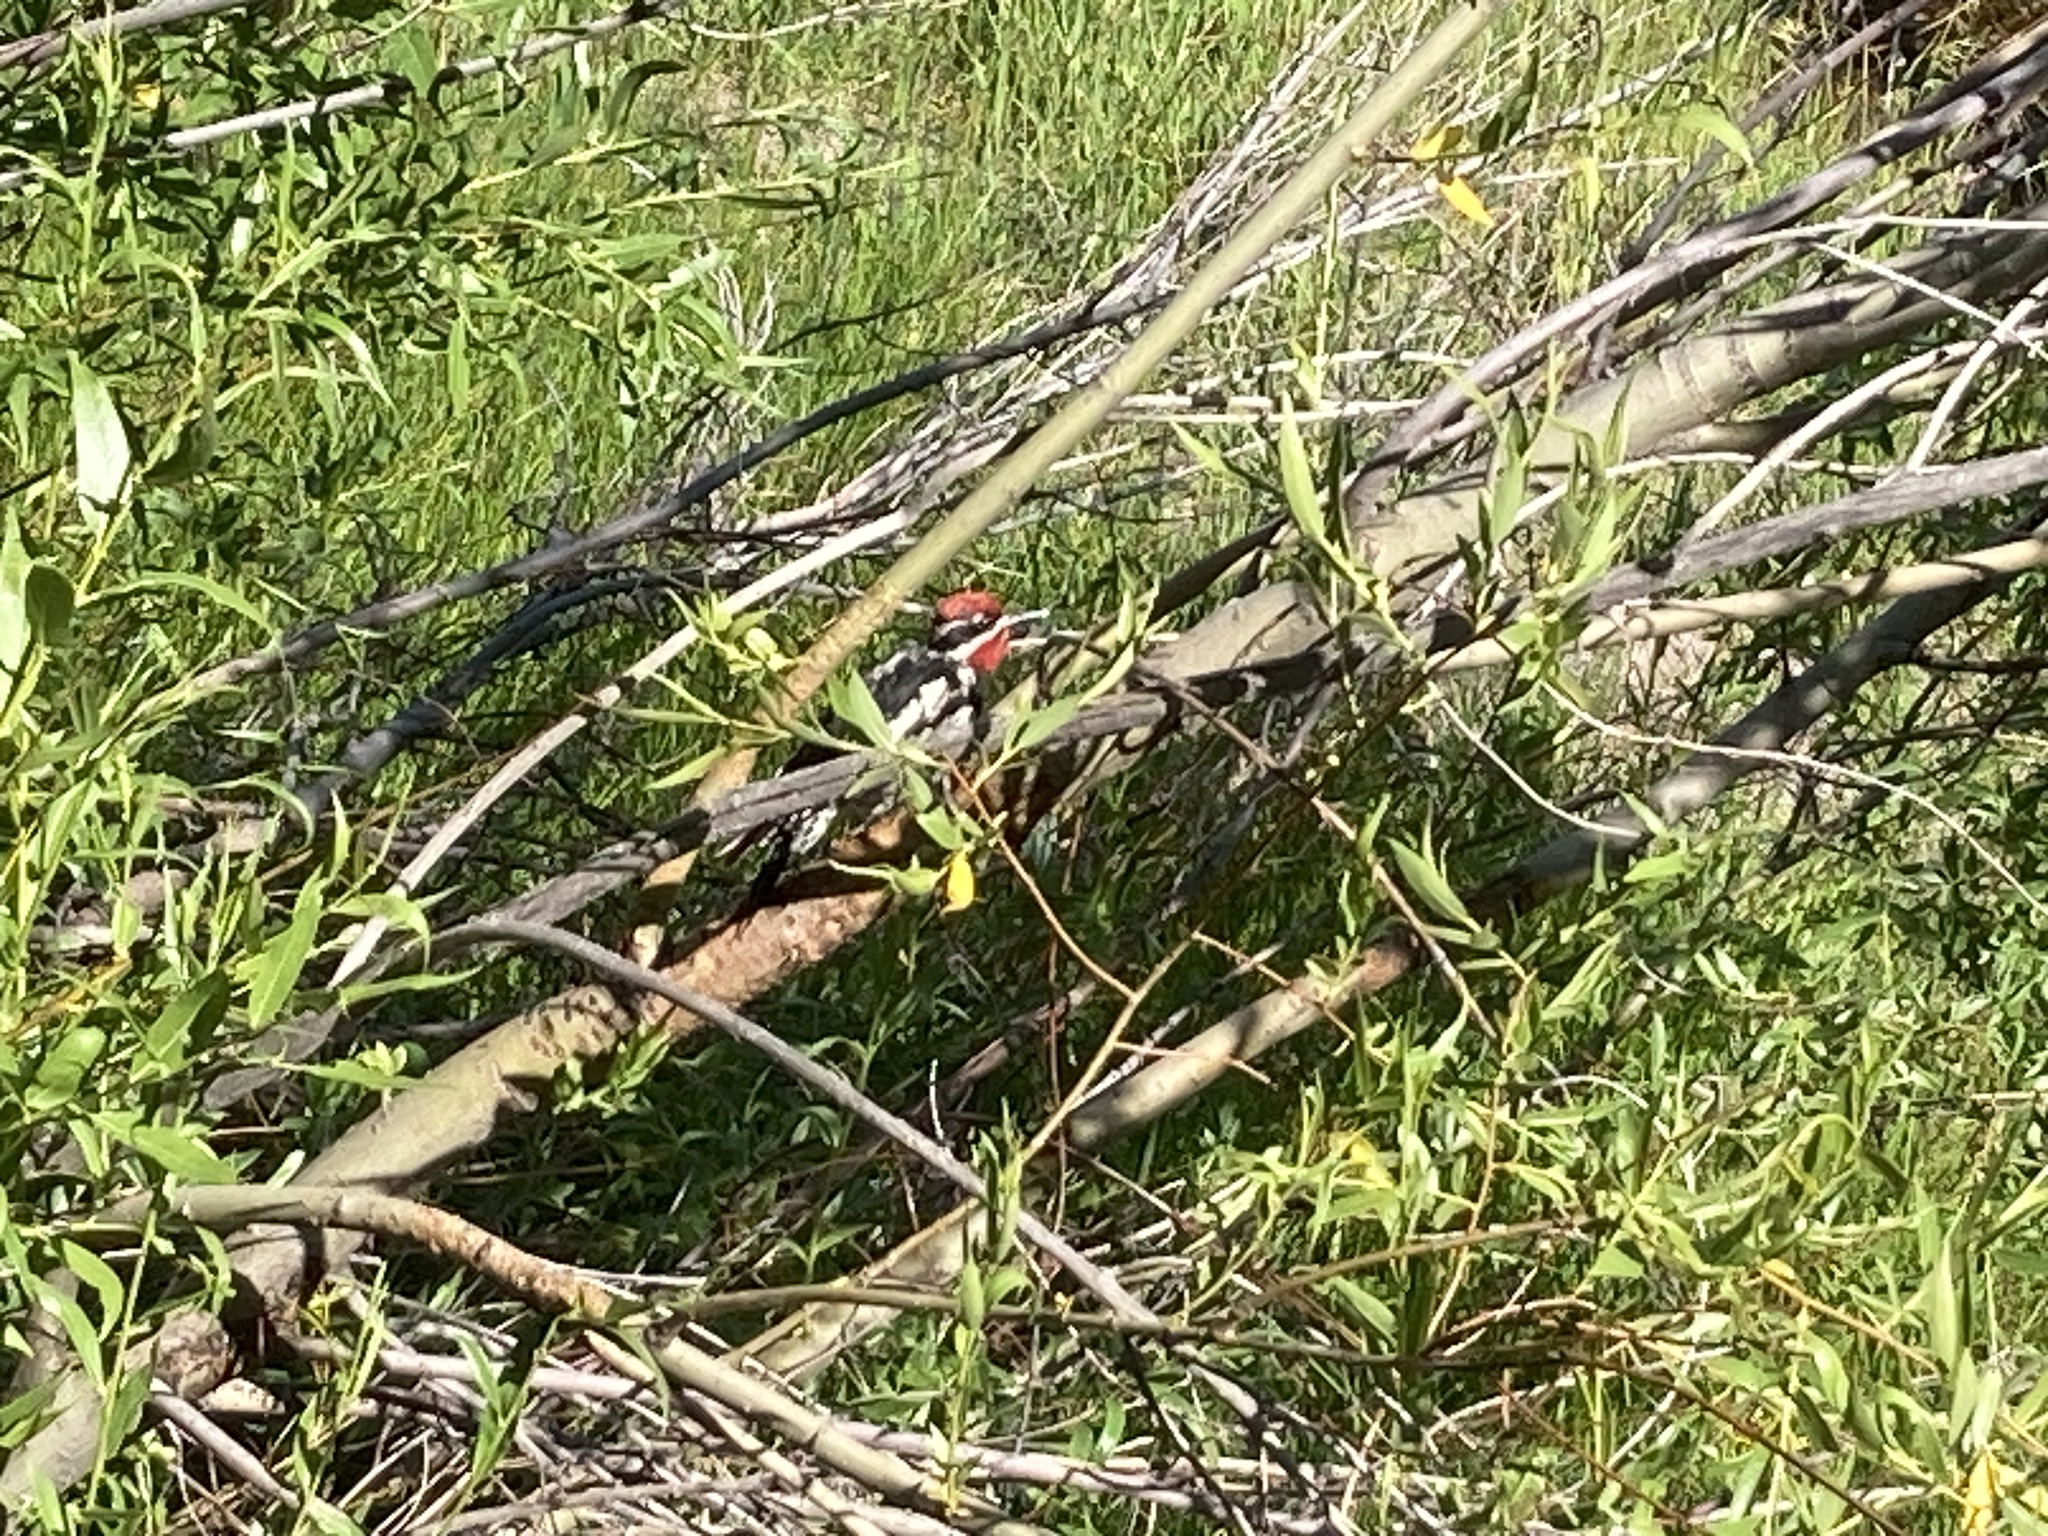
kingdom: Animalia
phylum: Chordata
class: Aves
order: Piciformes
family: Picidae
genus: Sphyrapicus
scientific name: Sphyrapicus nuchalis
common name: Red-naped sapsucker
